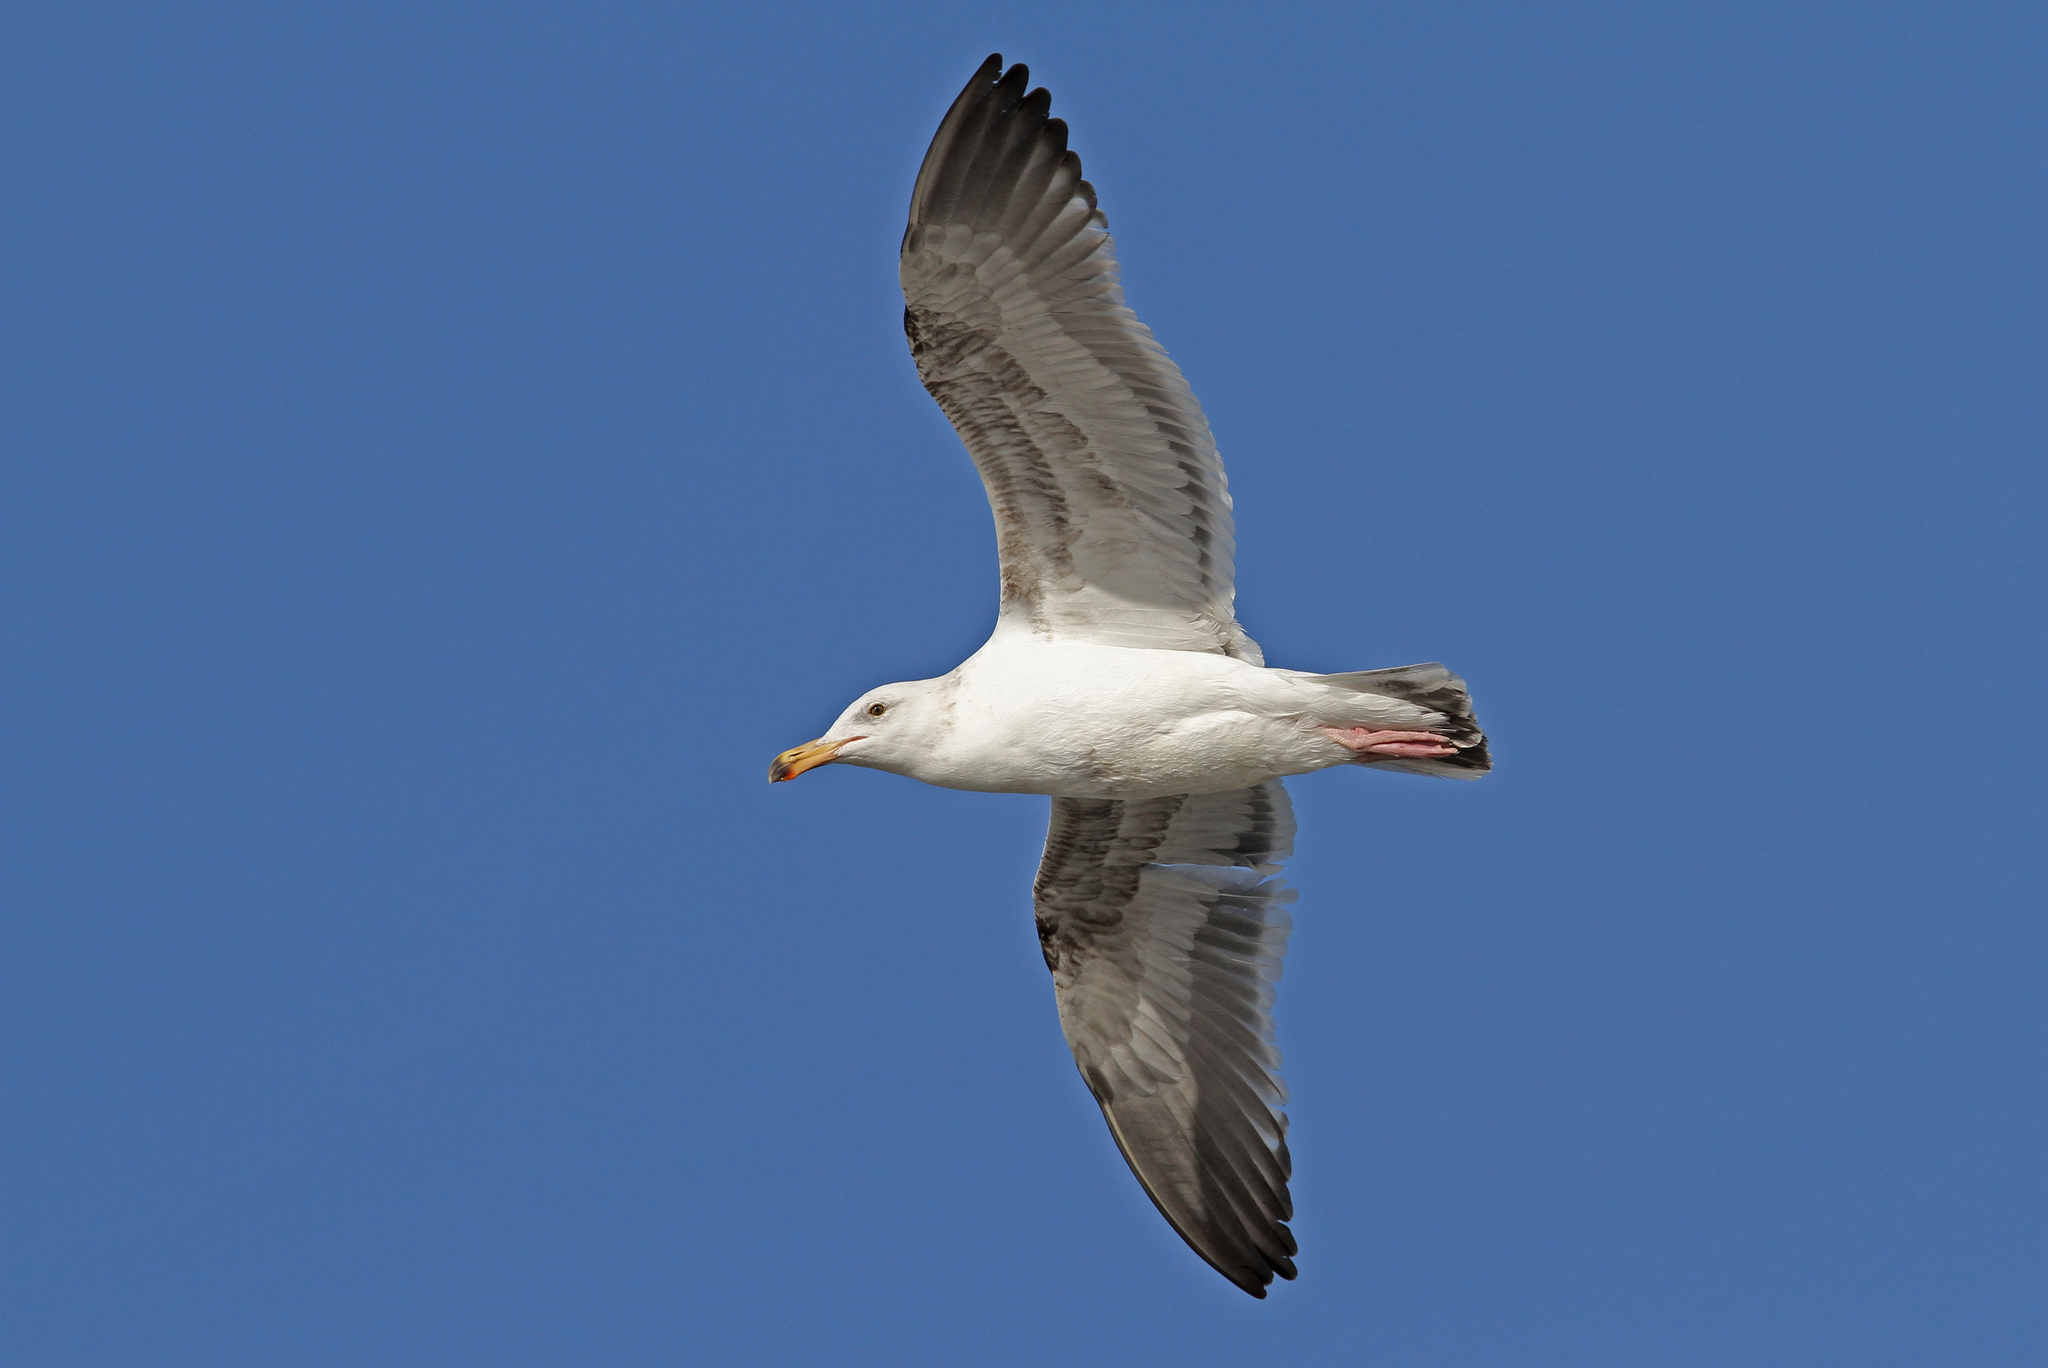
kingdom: Animalia
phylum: Chordata
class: Aves
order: Charadriiformes
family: Laridae
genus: Larus
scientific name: Larus occidentalis
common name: Western gull
